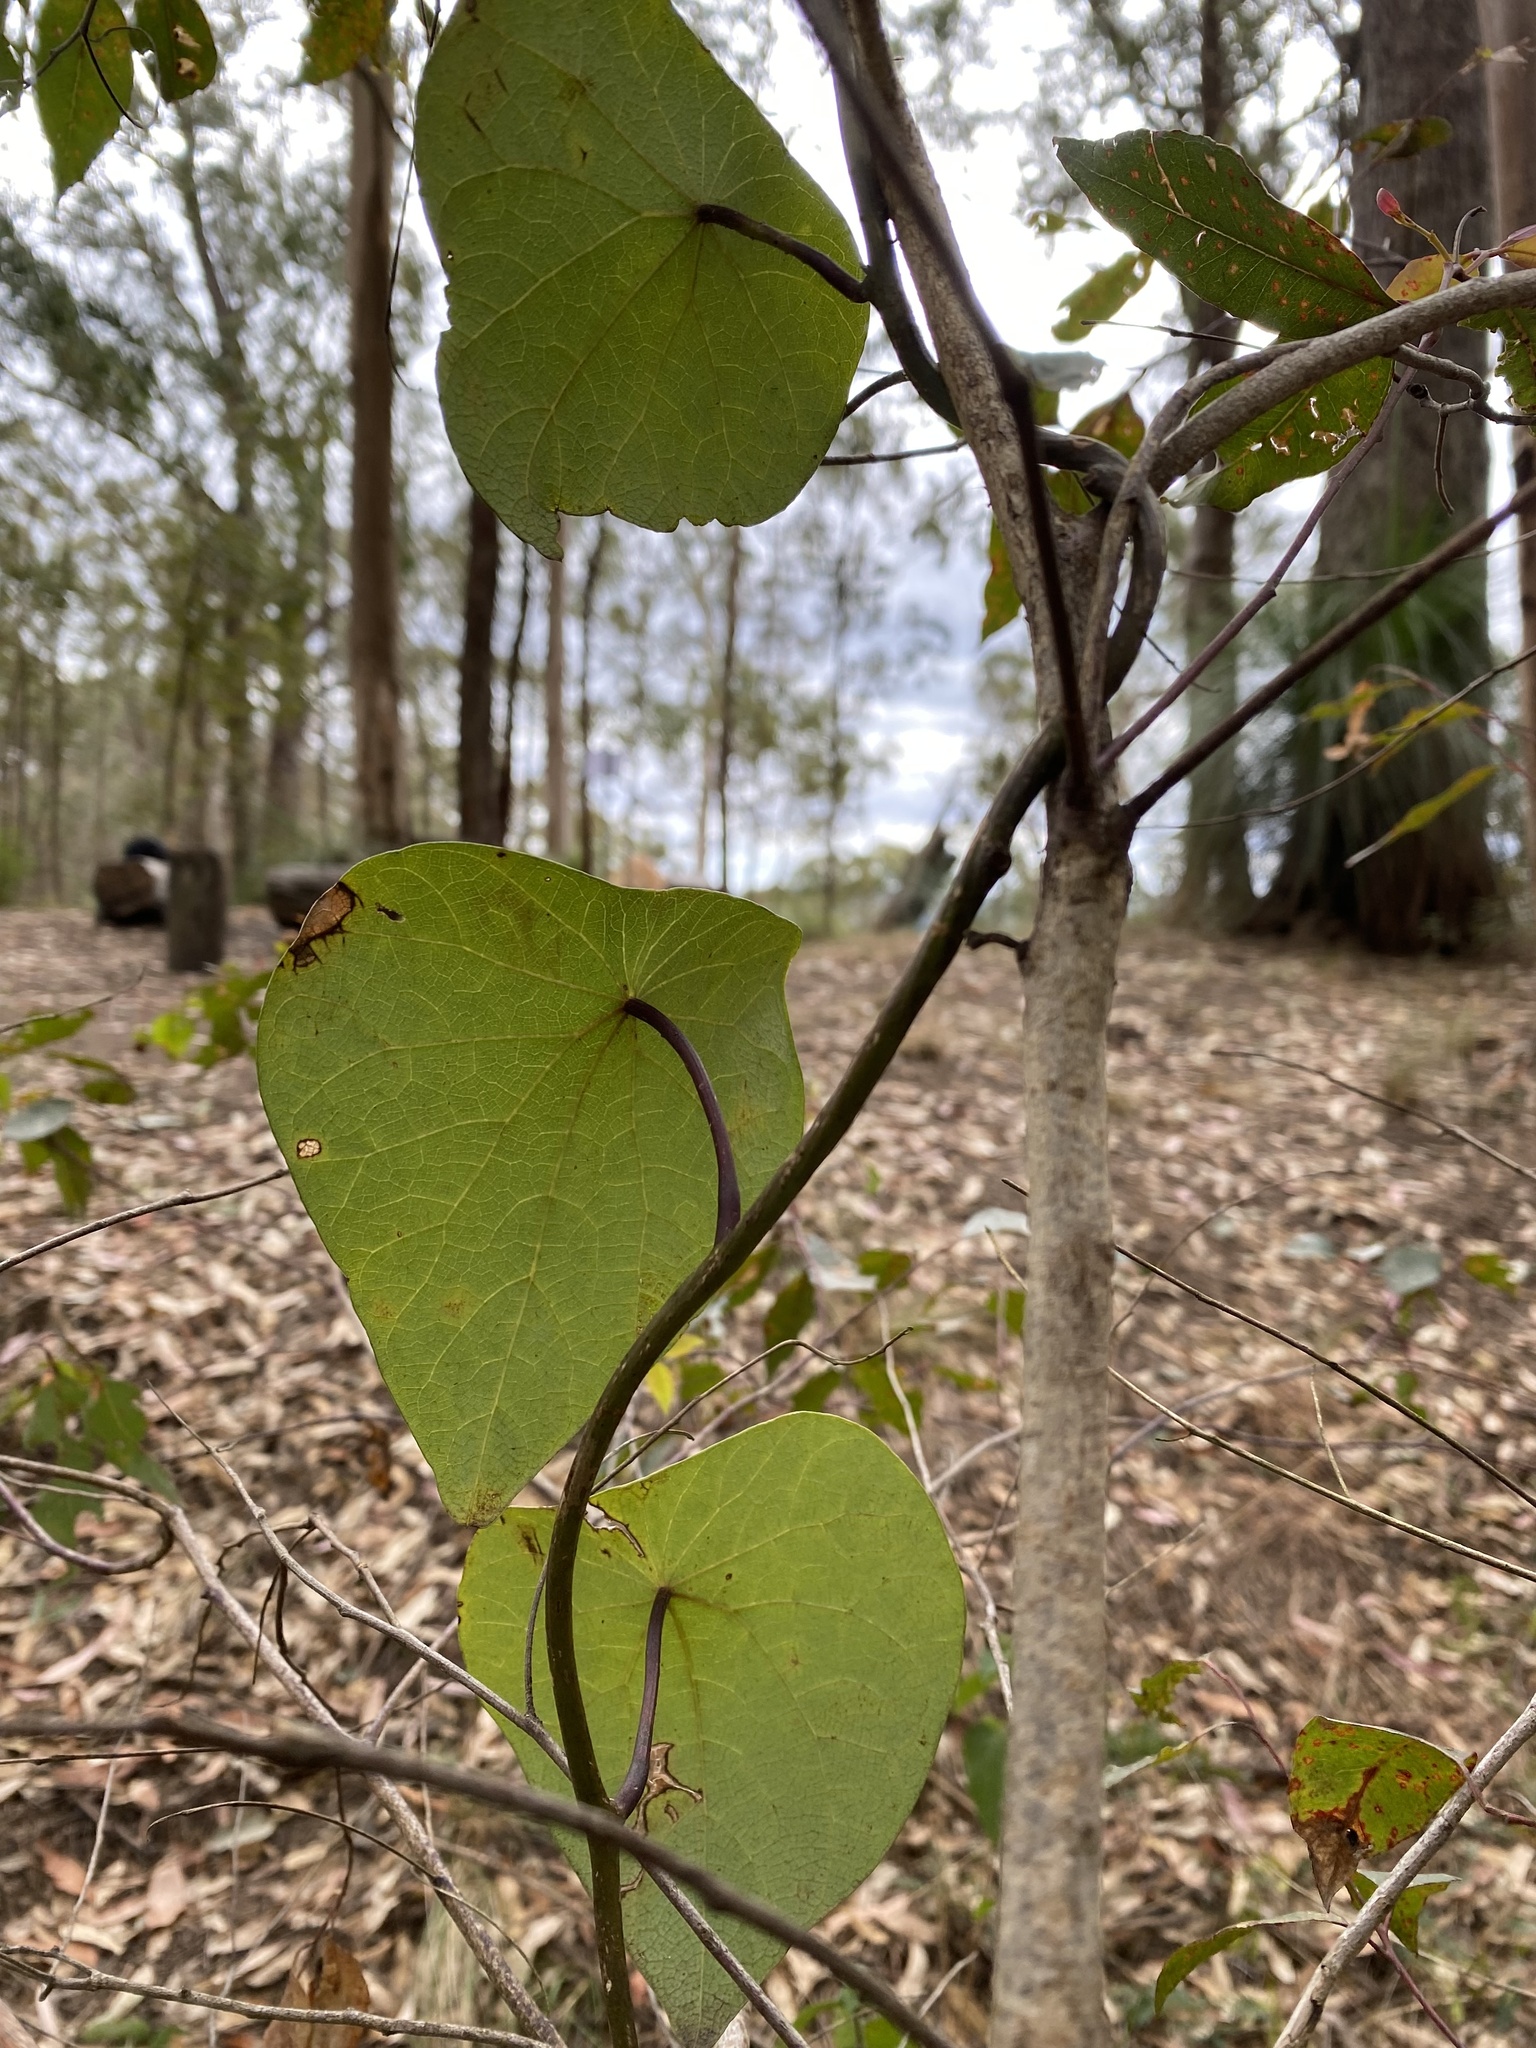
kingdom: Plantae
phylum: Tracheophyta
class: Magnoliopsida
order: Ranunculales
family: Menispermaceae
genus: Stephania
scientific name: Stephania japonica
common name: Snake vine
